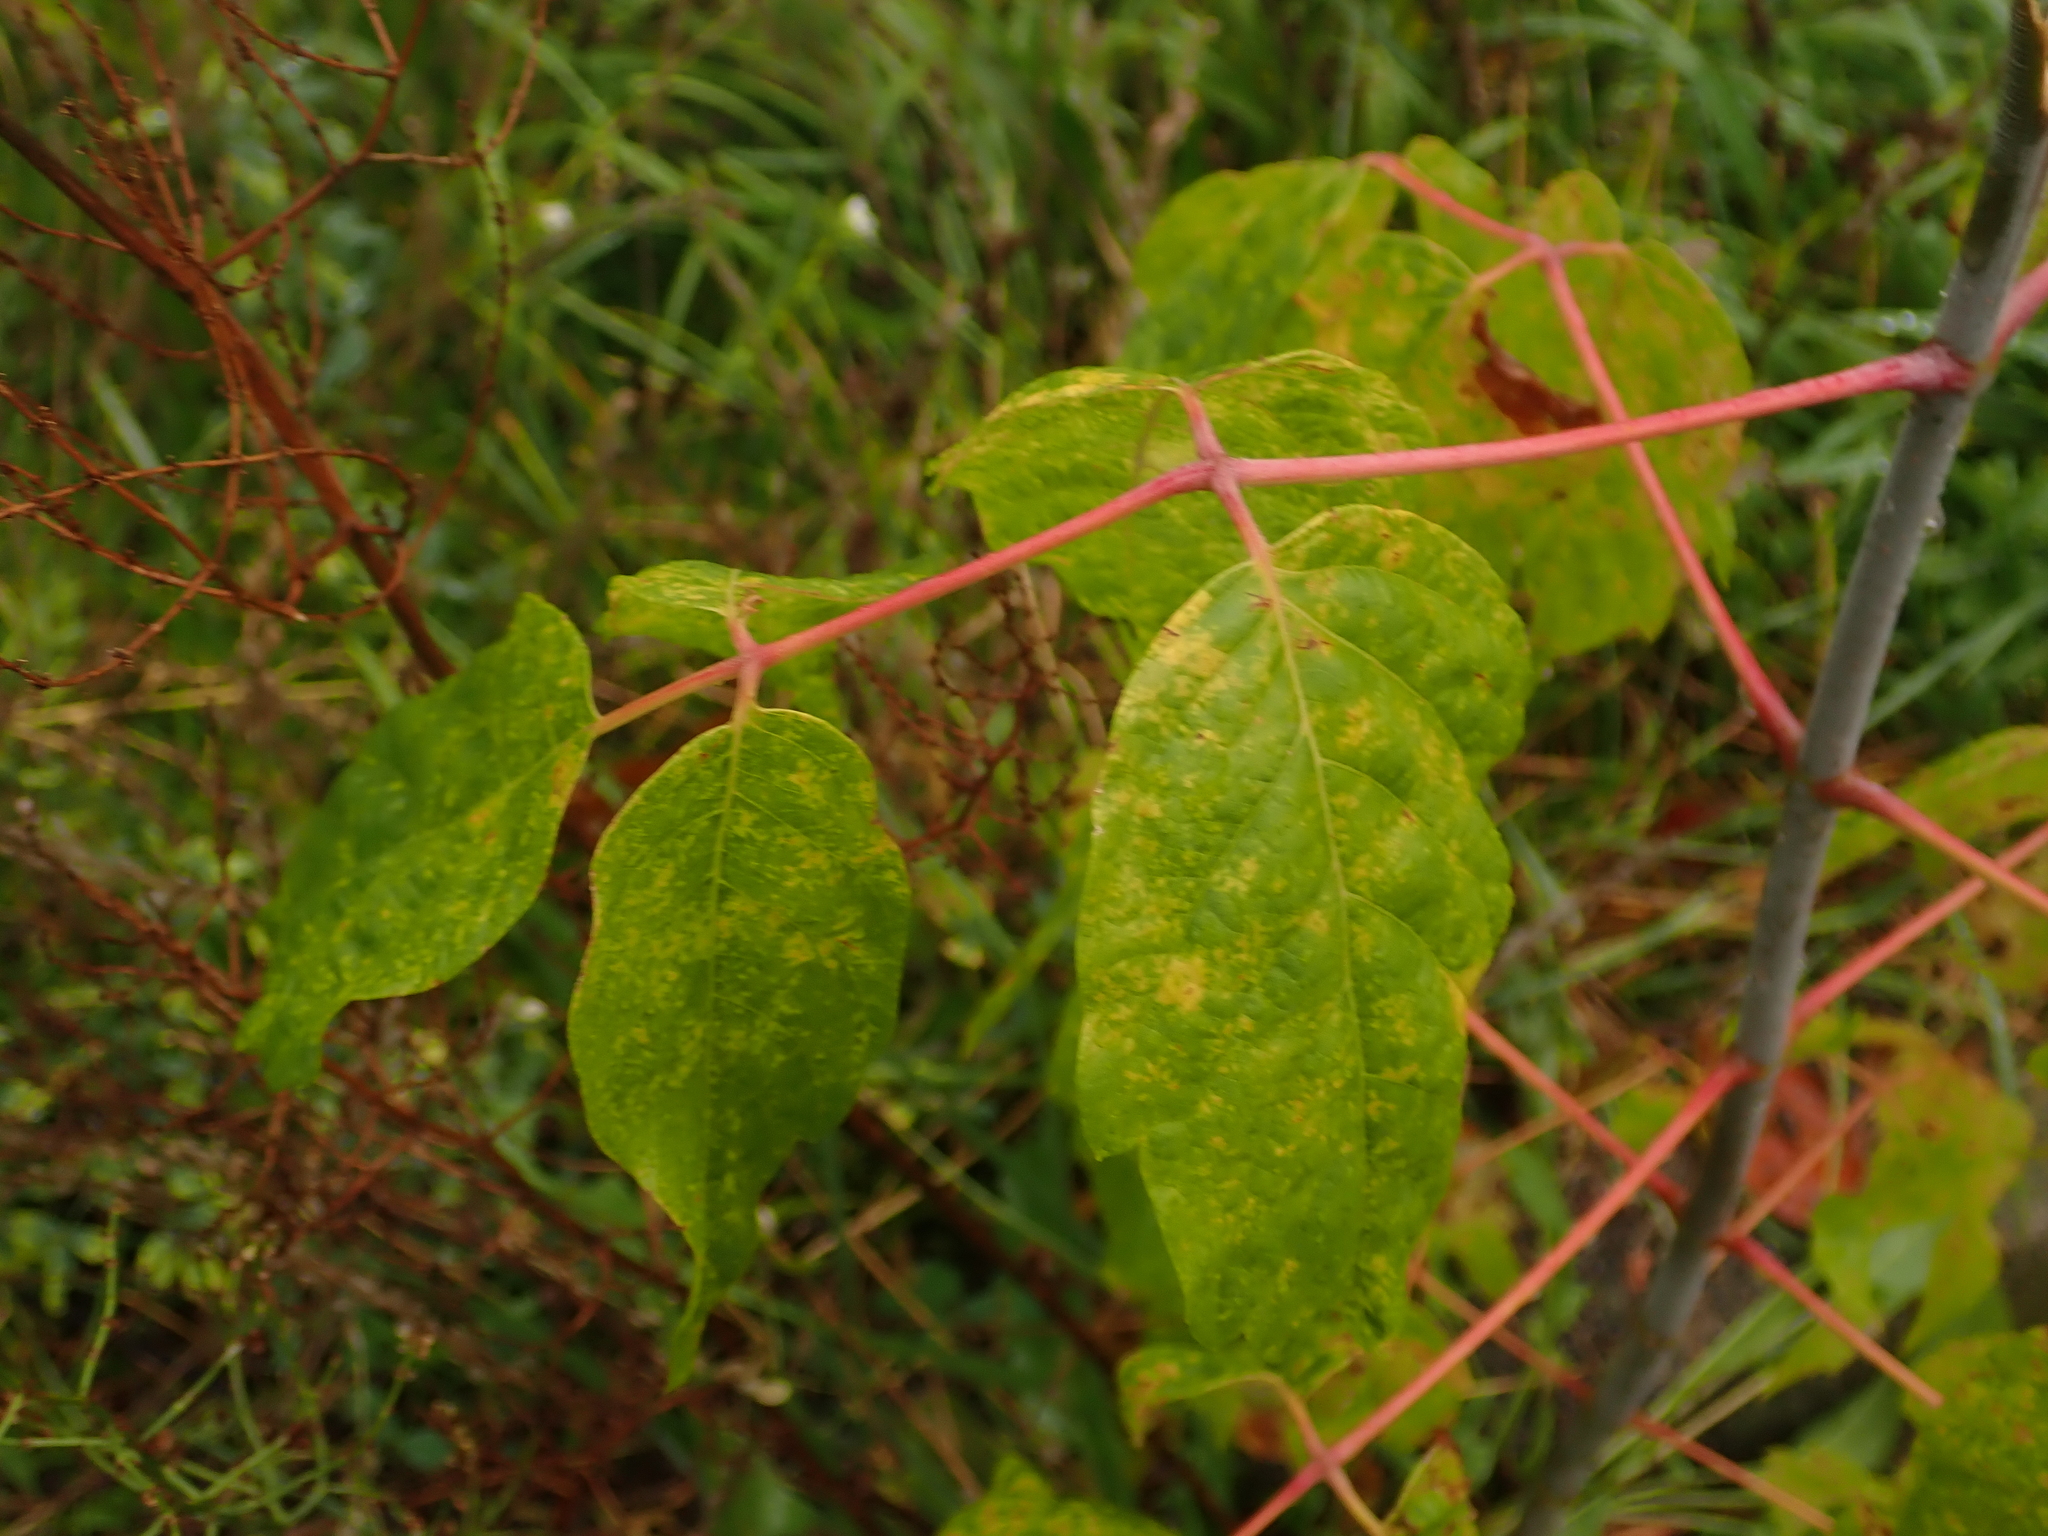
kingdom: Plantae
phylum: Tracheophyta
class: Magnoliopsida
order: Sapindales
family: Sapindaceae
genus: Acer
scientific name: Acer negundo
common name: Ashleaf maple
